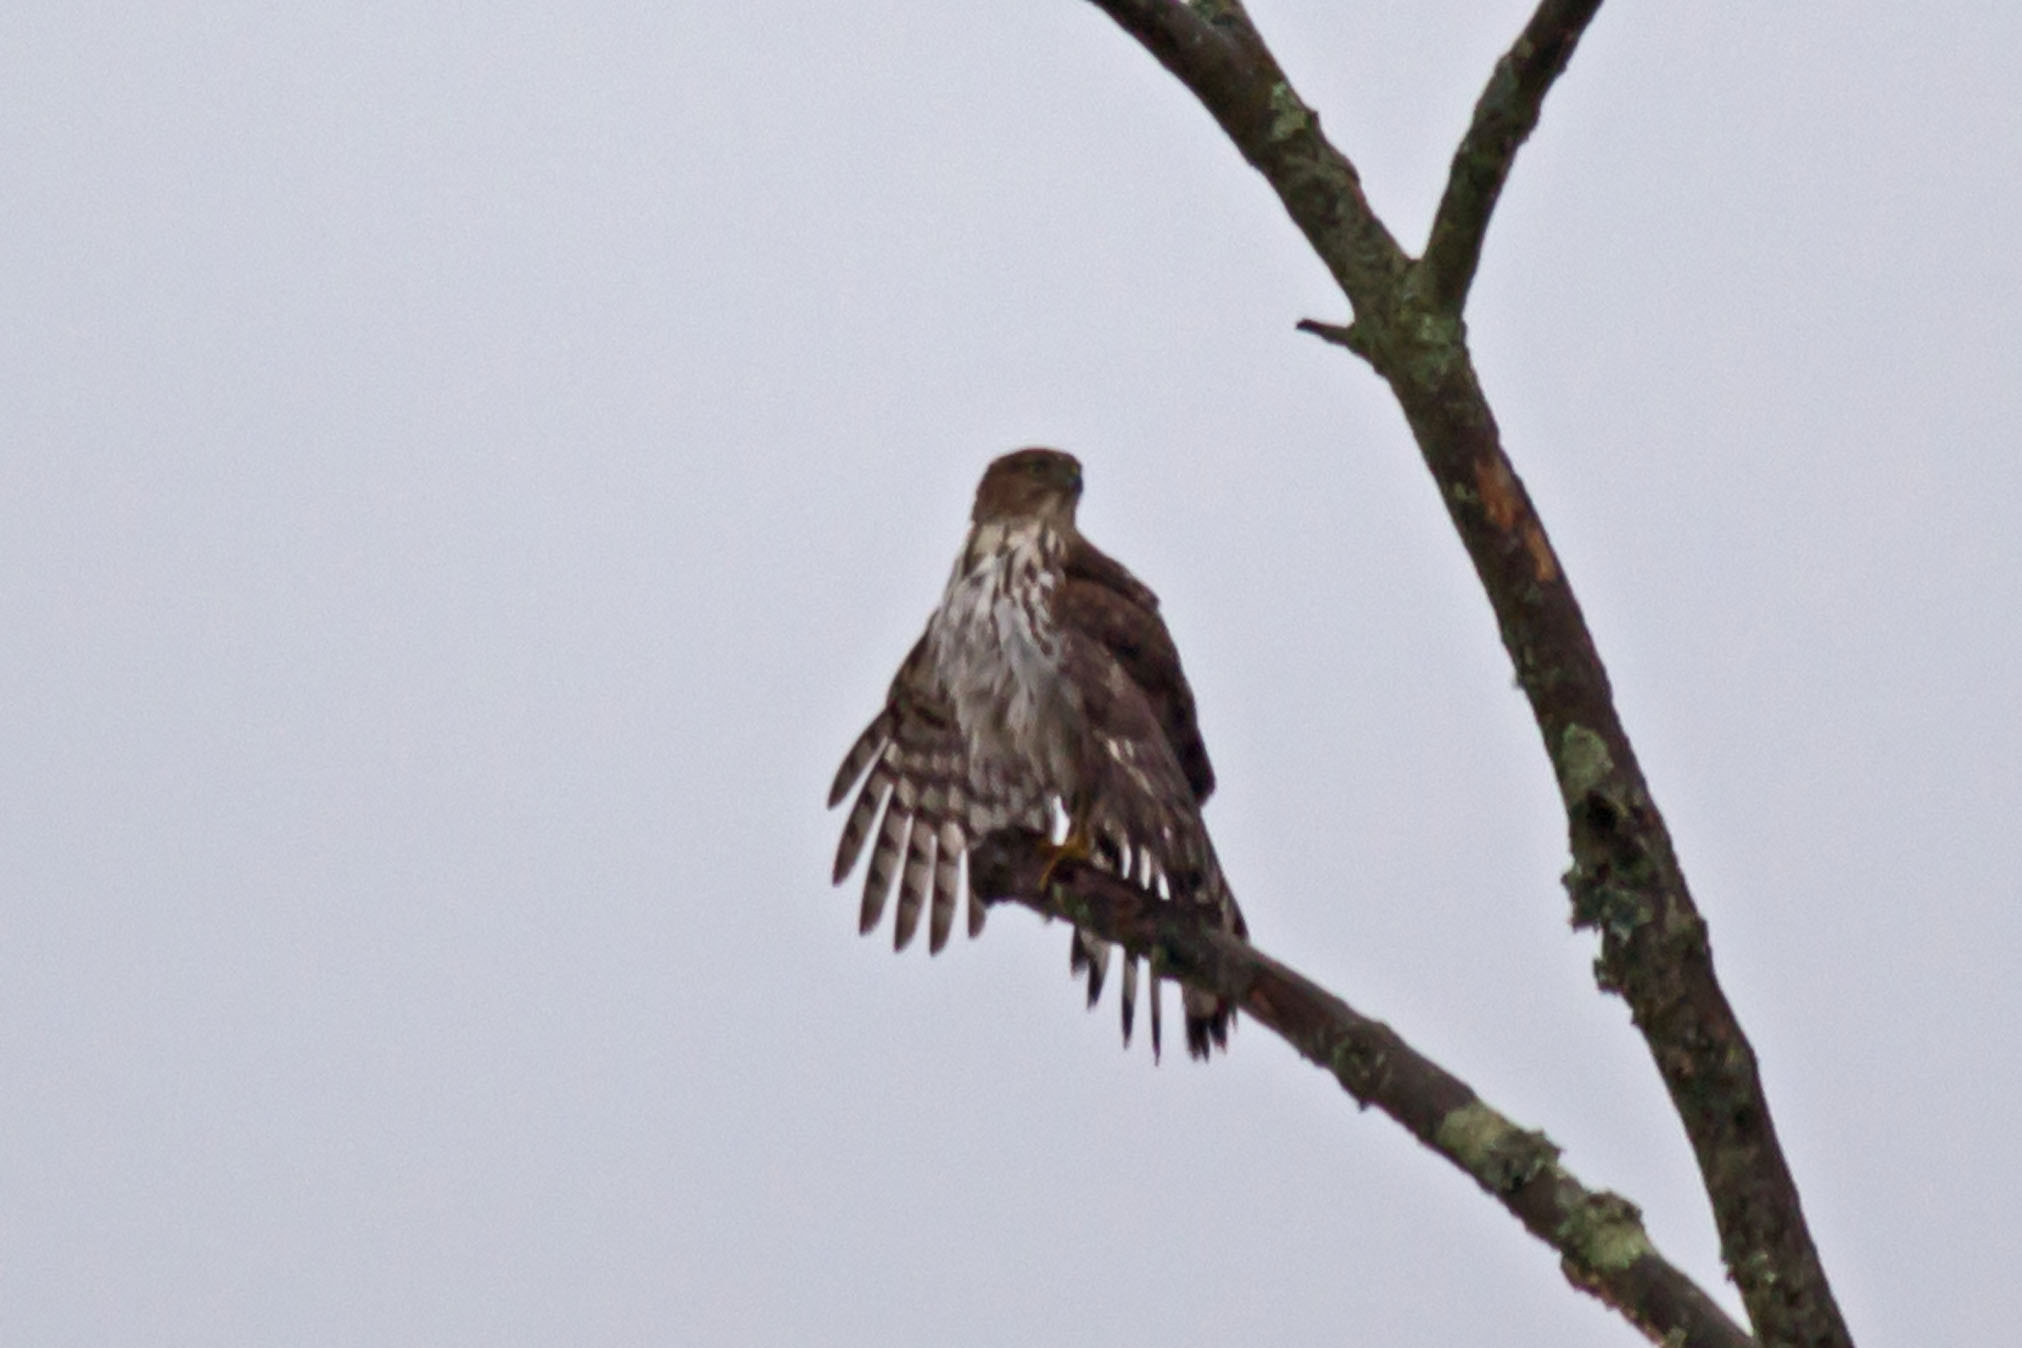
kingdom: Animalia
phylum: Chordata
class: Aves
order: Accipitriformes
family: Accipitridae
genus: Accipiter
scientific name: Accipiter cooperii
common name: Cooper's hawk
